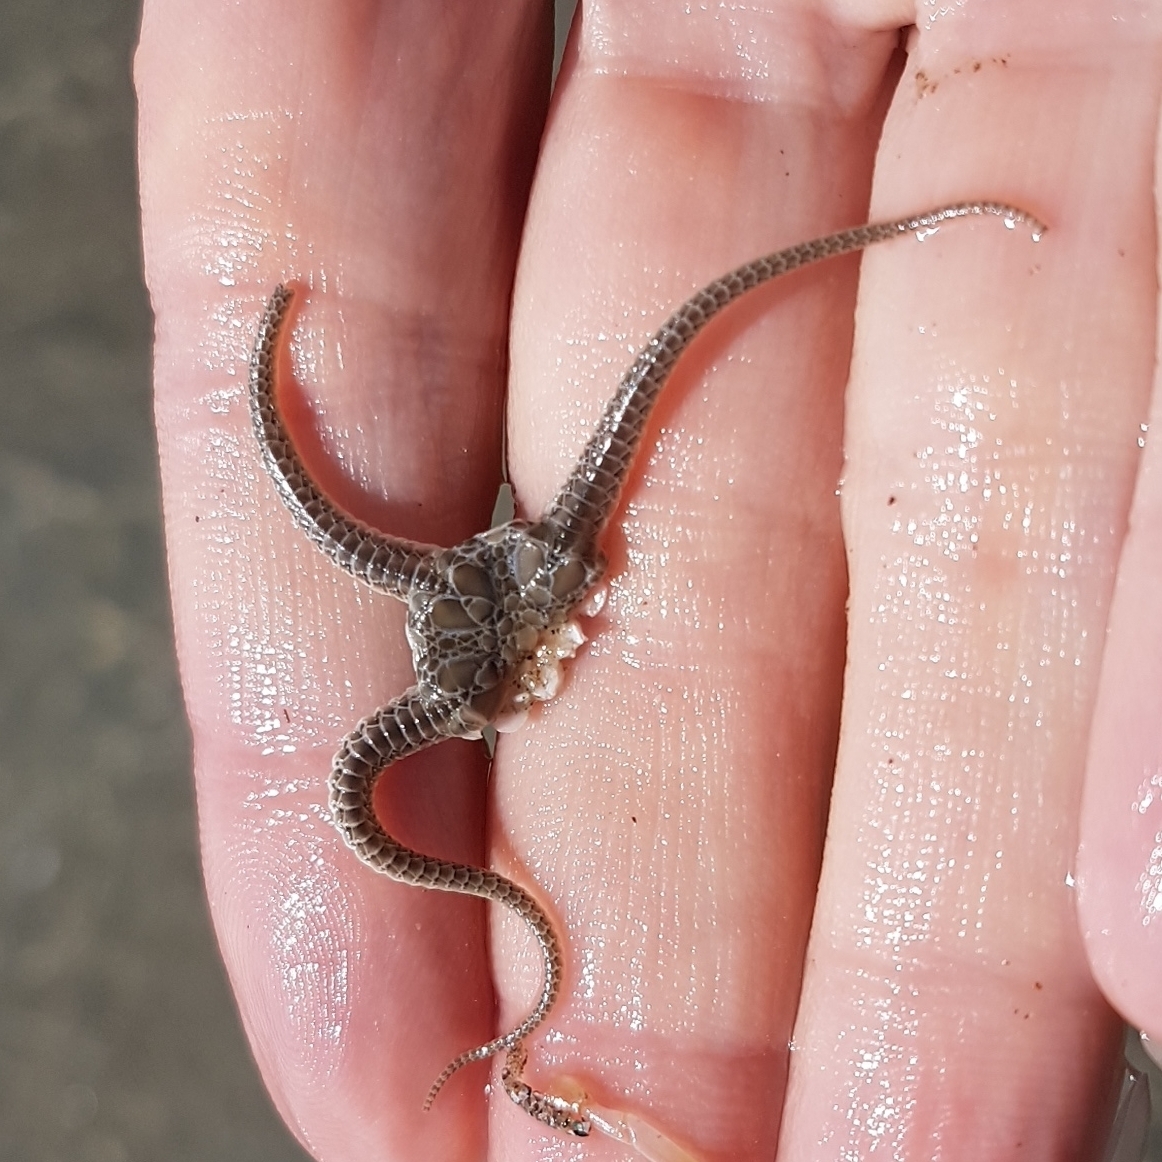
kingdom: Animalia
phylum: Echinodermata
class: Ophiuroidea
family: Ophiuridae
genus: Ophiura
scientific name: Ophiura ophiura
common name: Serpent star
